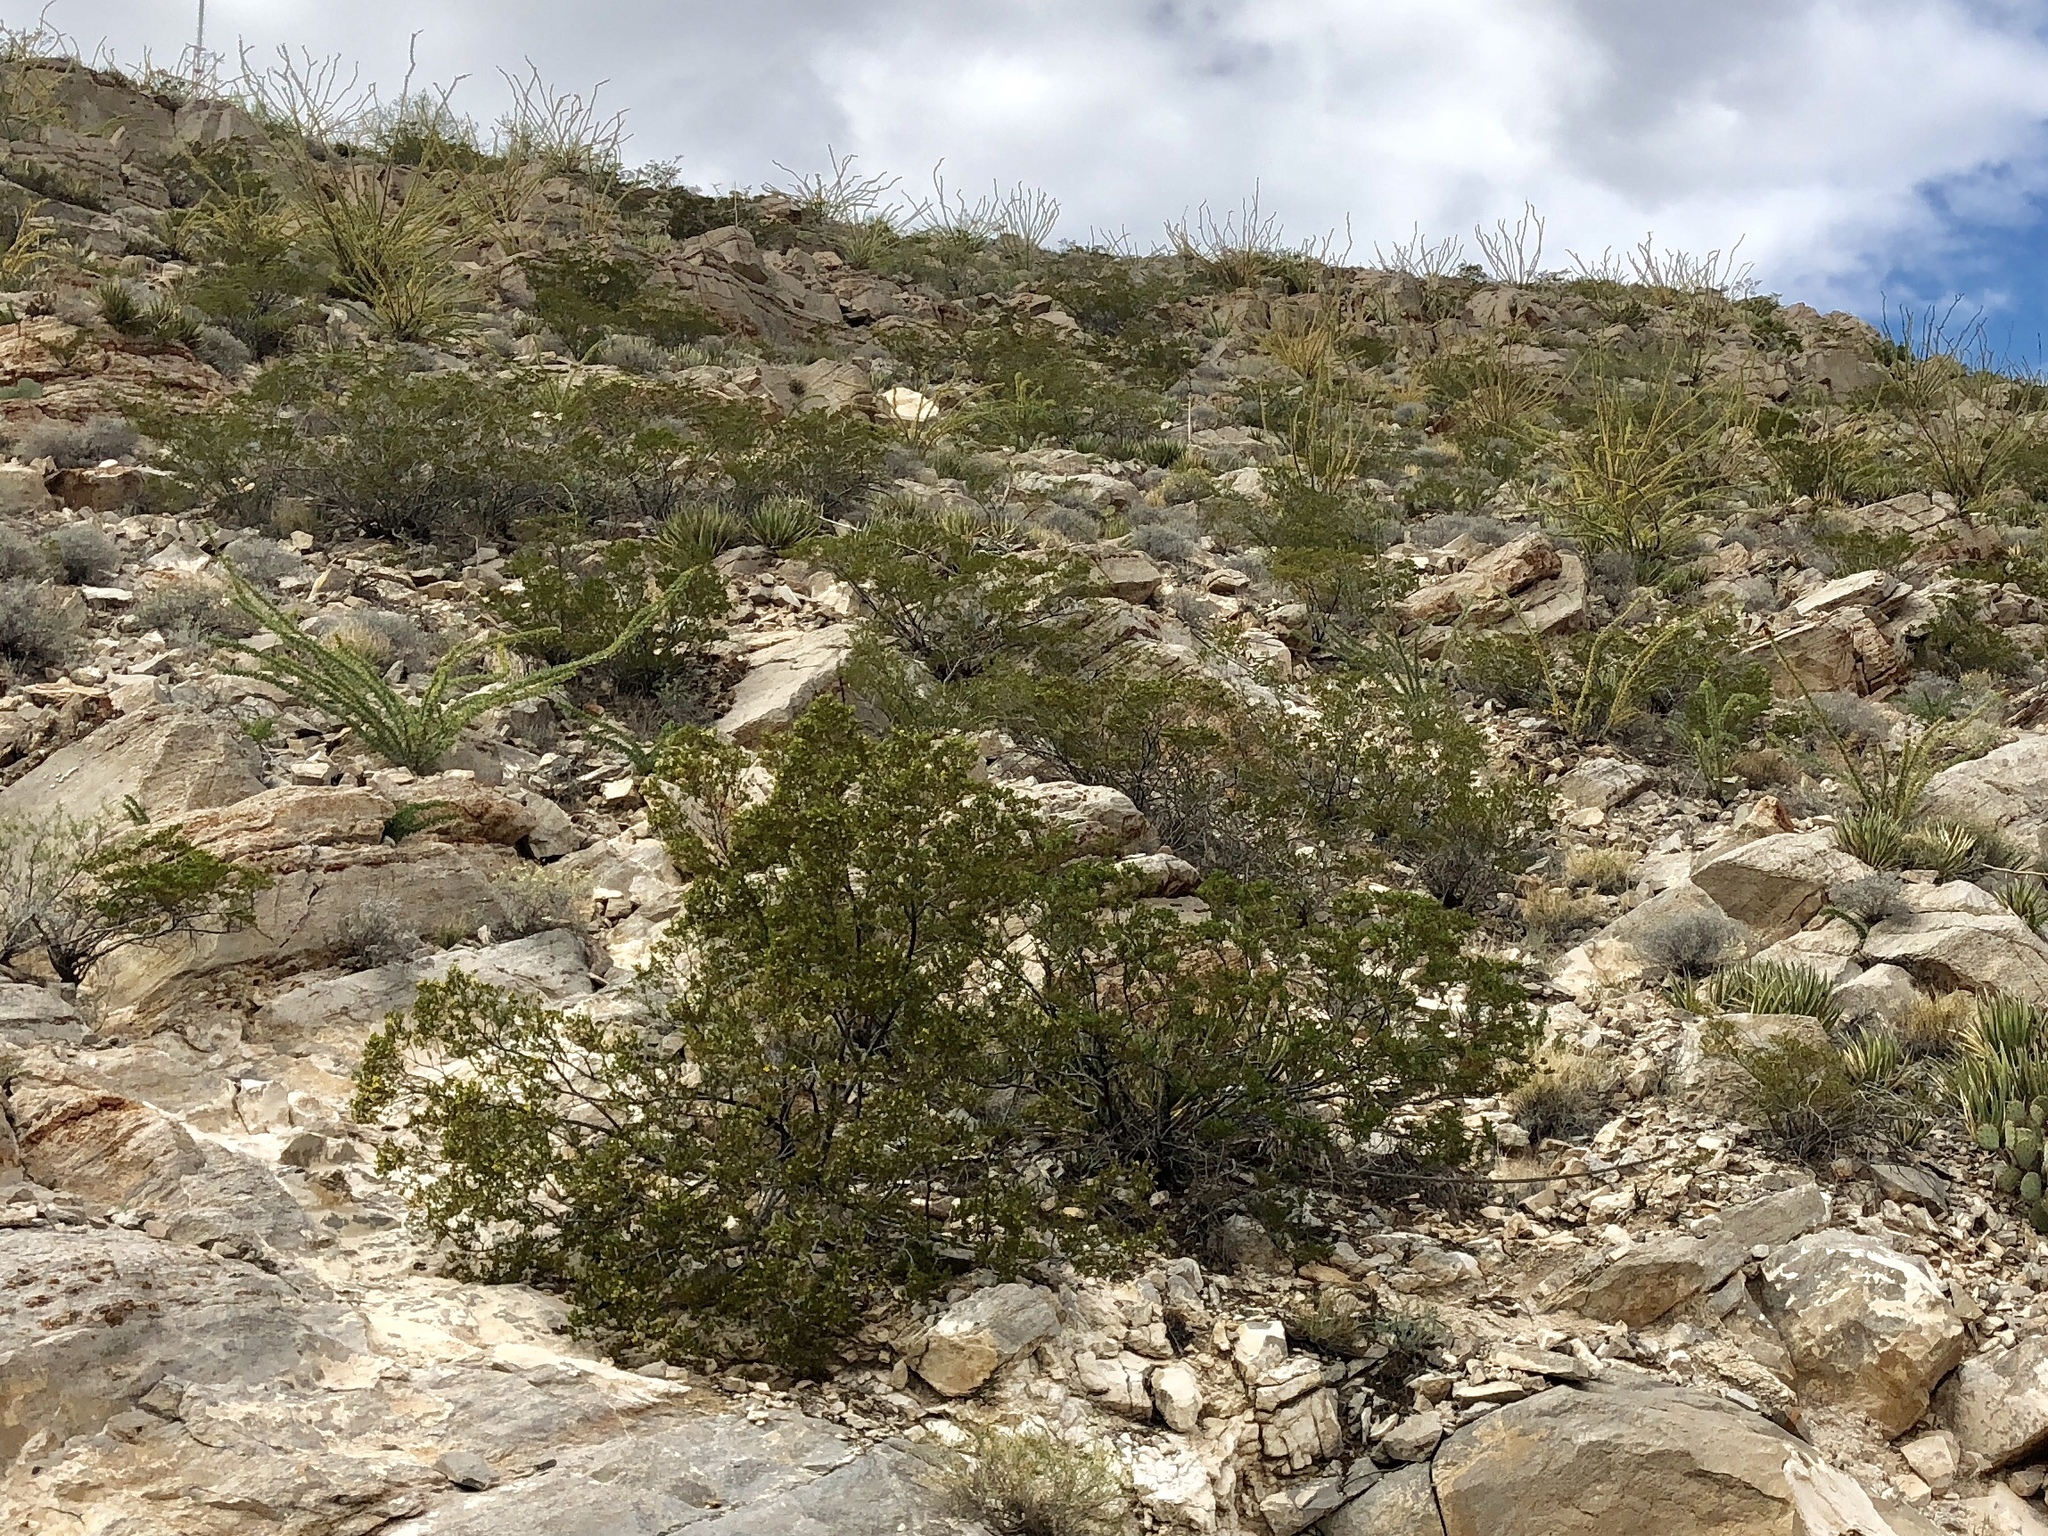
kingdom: Plantae
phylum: Tracheophyta
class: Magnoliopsida
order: Zygophyllales
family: Zygophyllaceae
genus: Larrea
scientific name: Larrea tridentata
